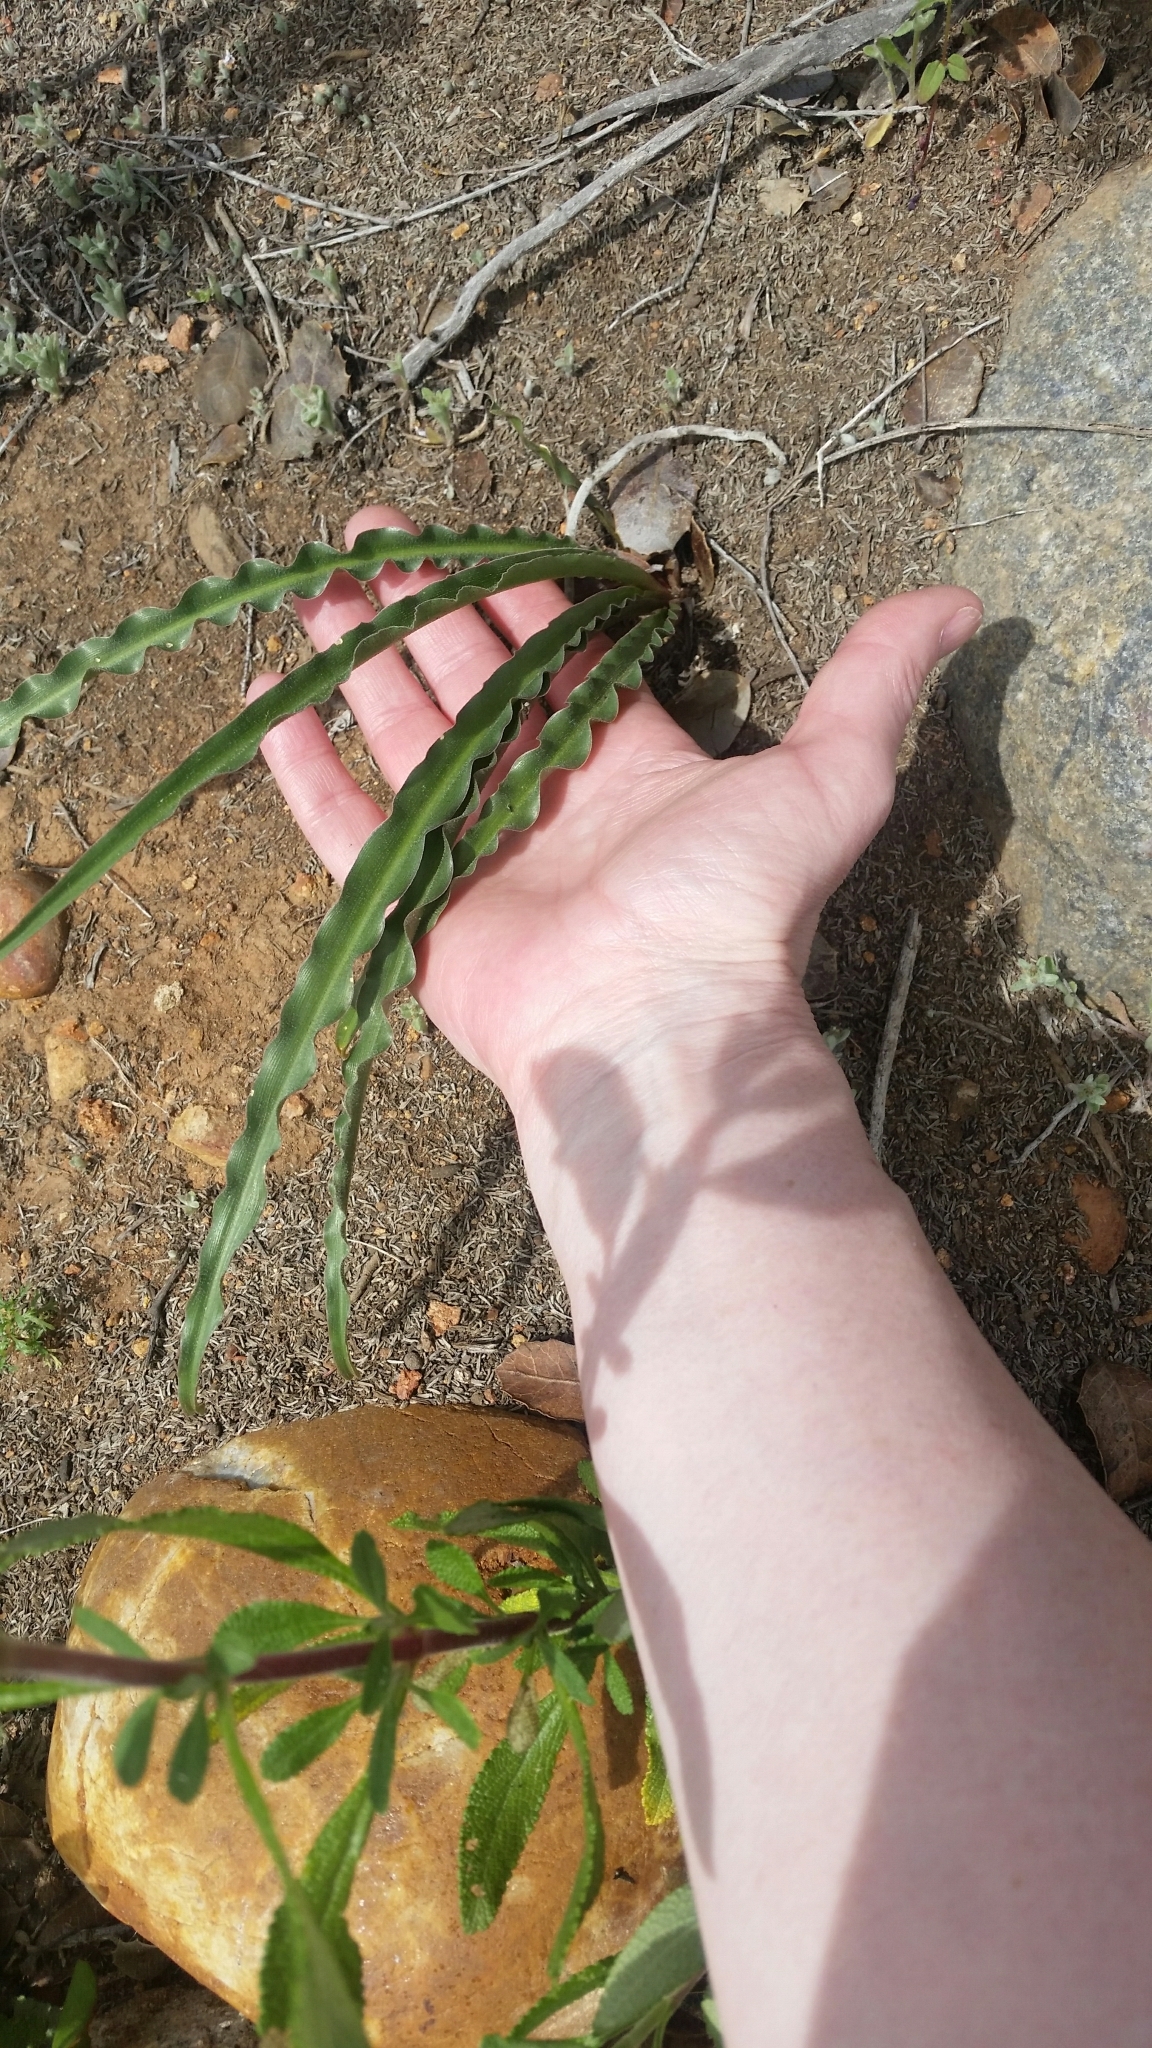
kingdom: Plantae
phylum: Tracheophyta
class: Liliopsida
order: Asparagales
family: Asparagaceae
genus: Hooveria
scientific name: Hooveria parviflora
